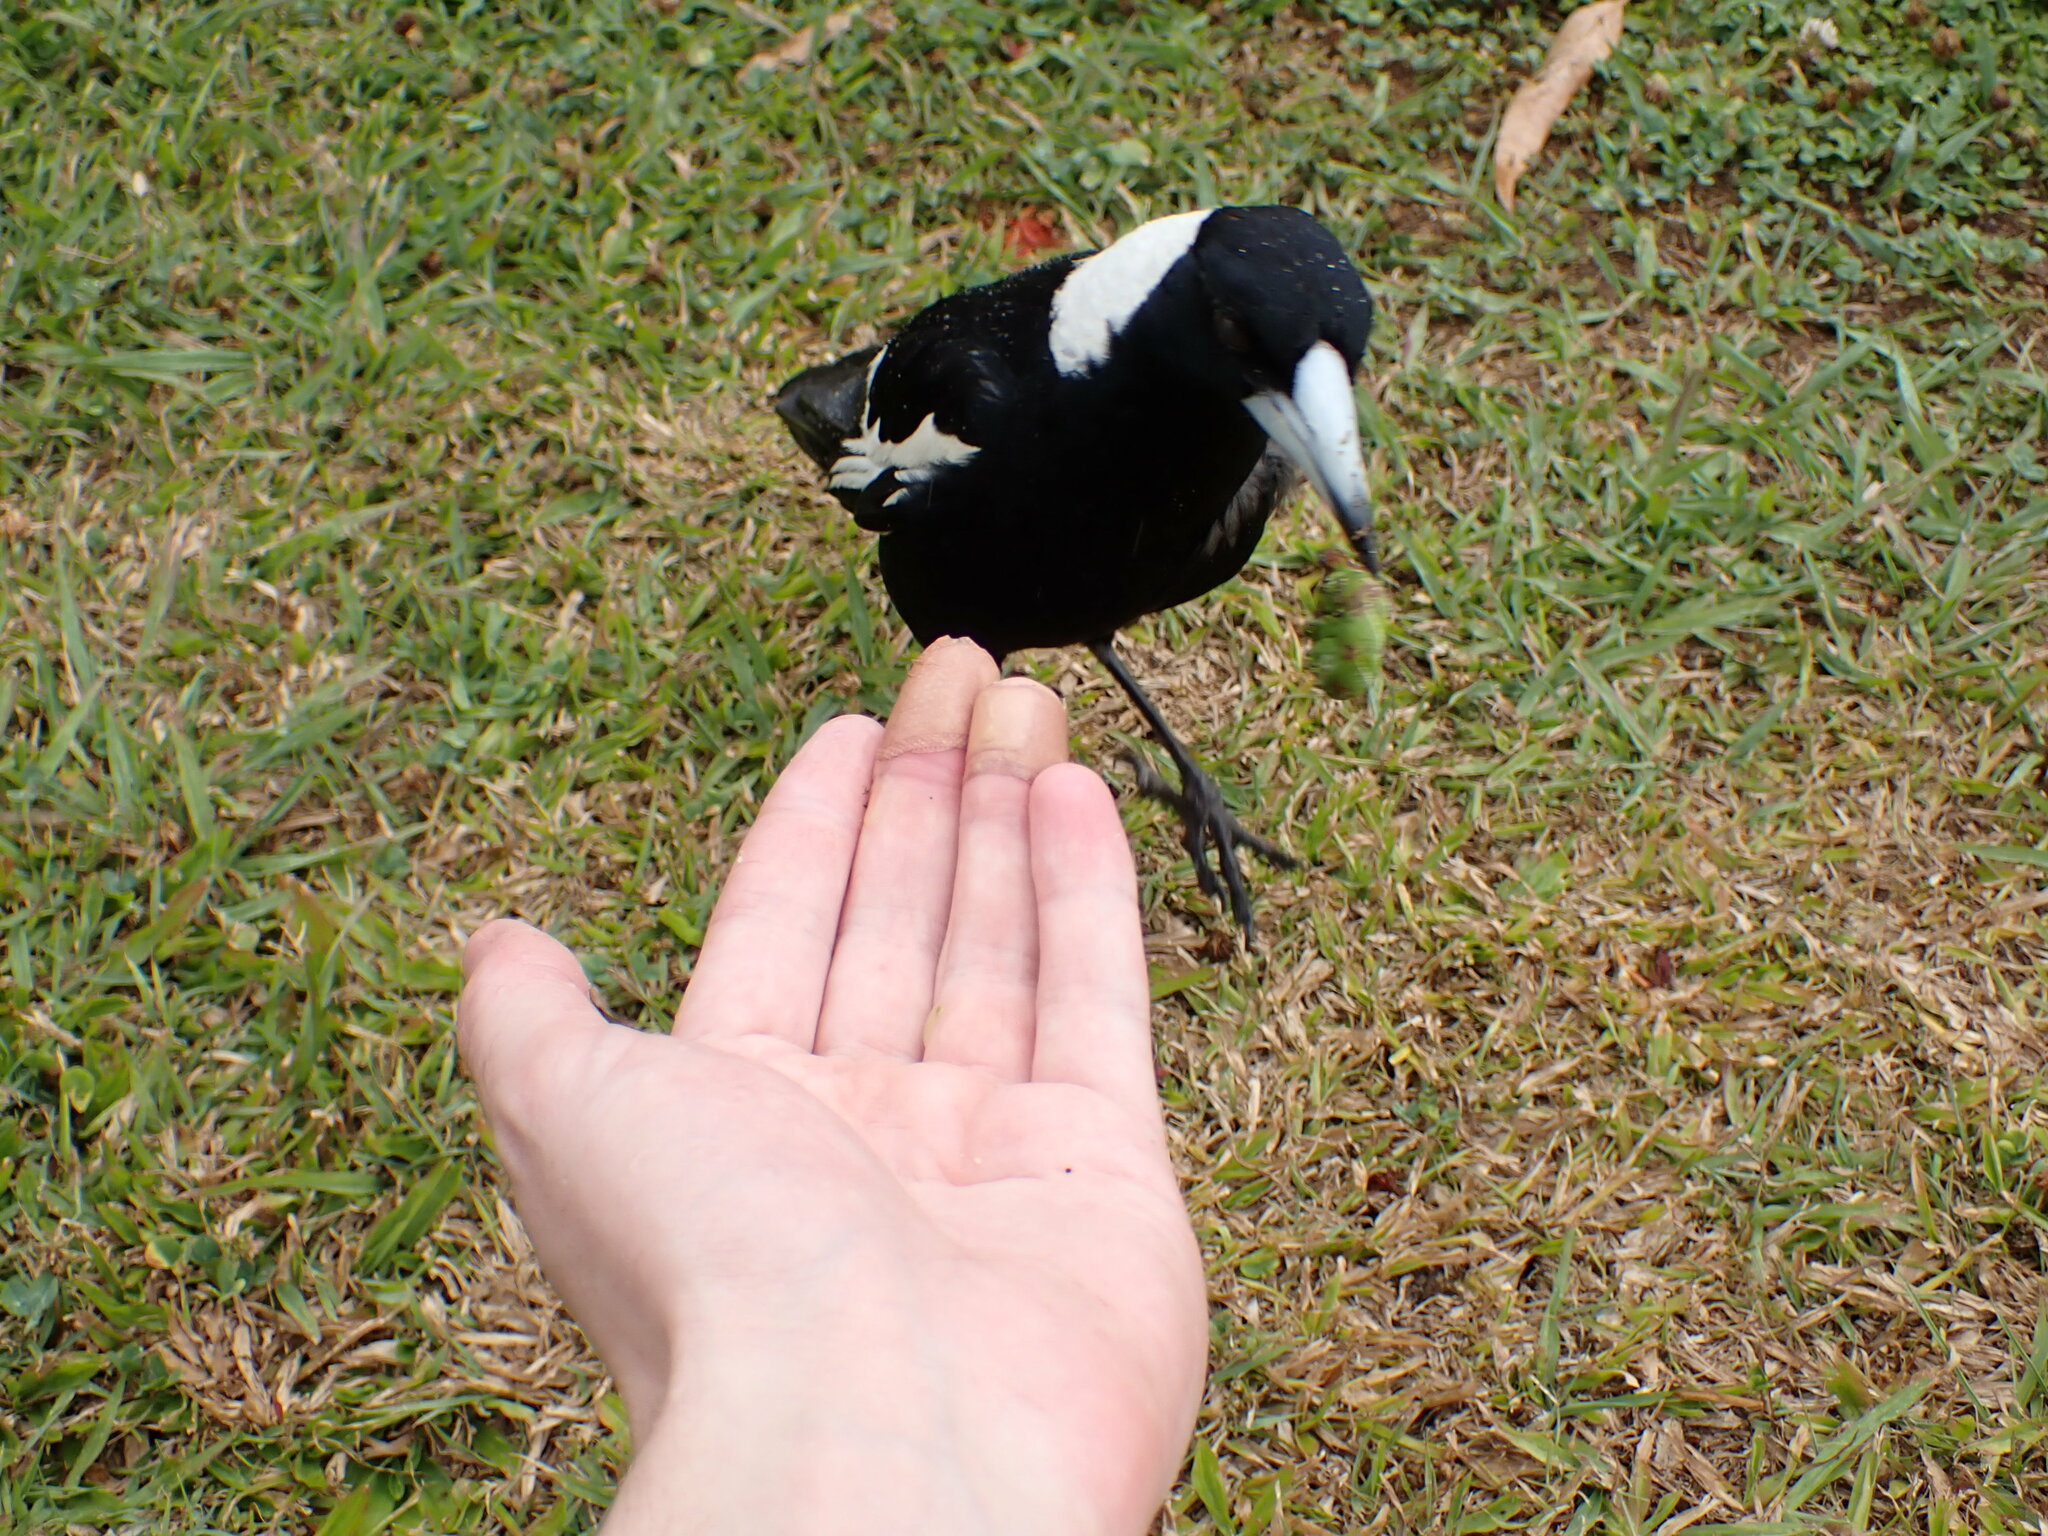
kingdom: Animalia
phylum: Chordata
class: Aves
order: Passeriformes
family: Cracticidae
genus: Gymnorhina
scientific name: Gymnorhina tibicen
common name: Australian magpie
